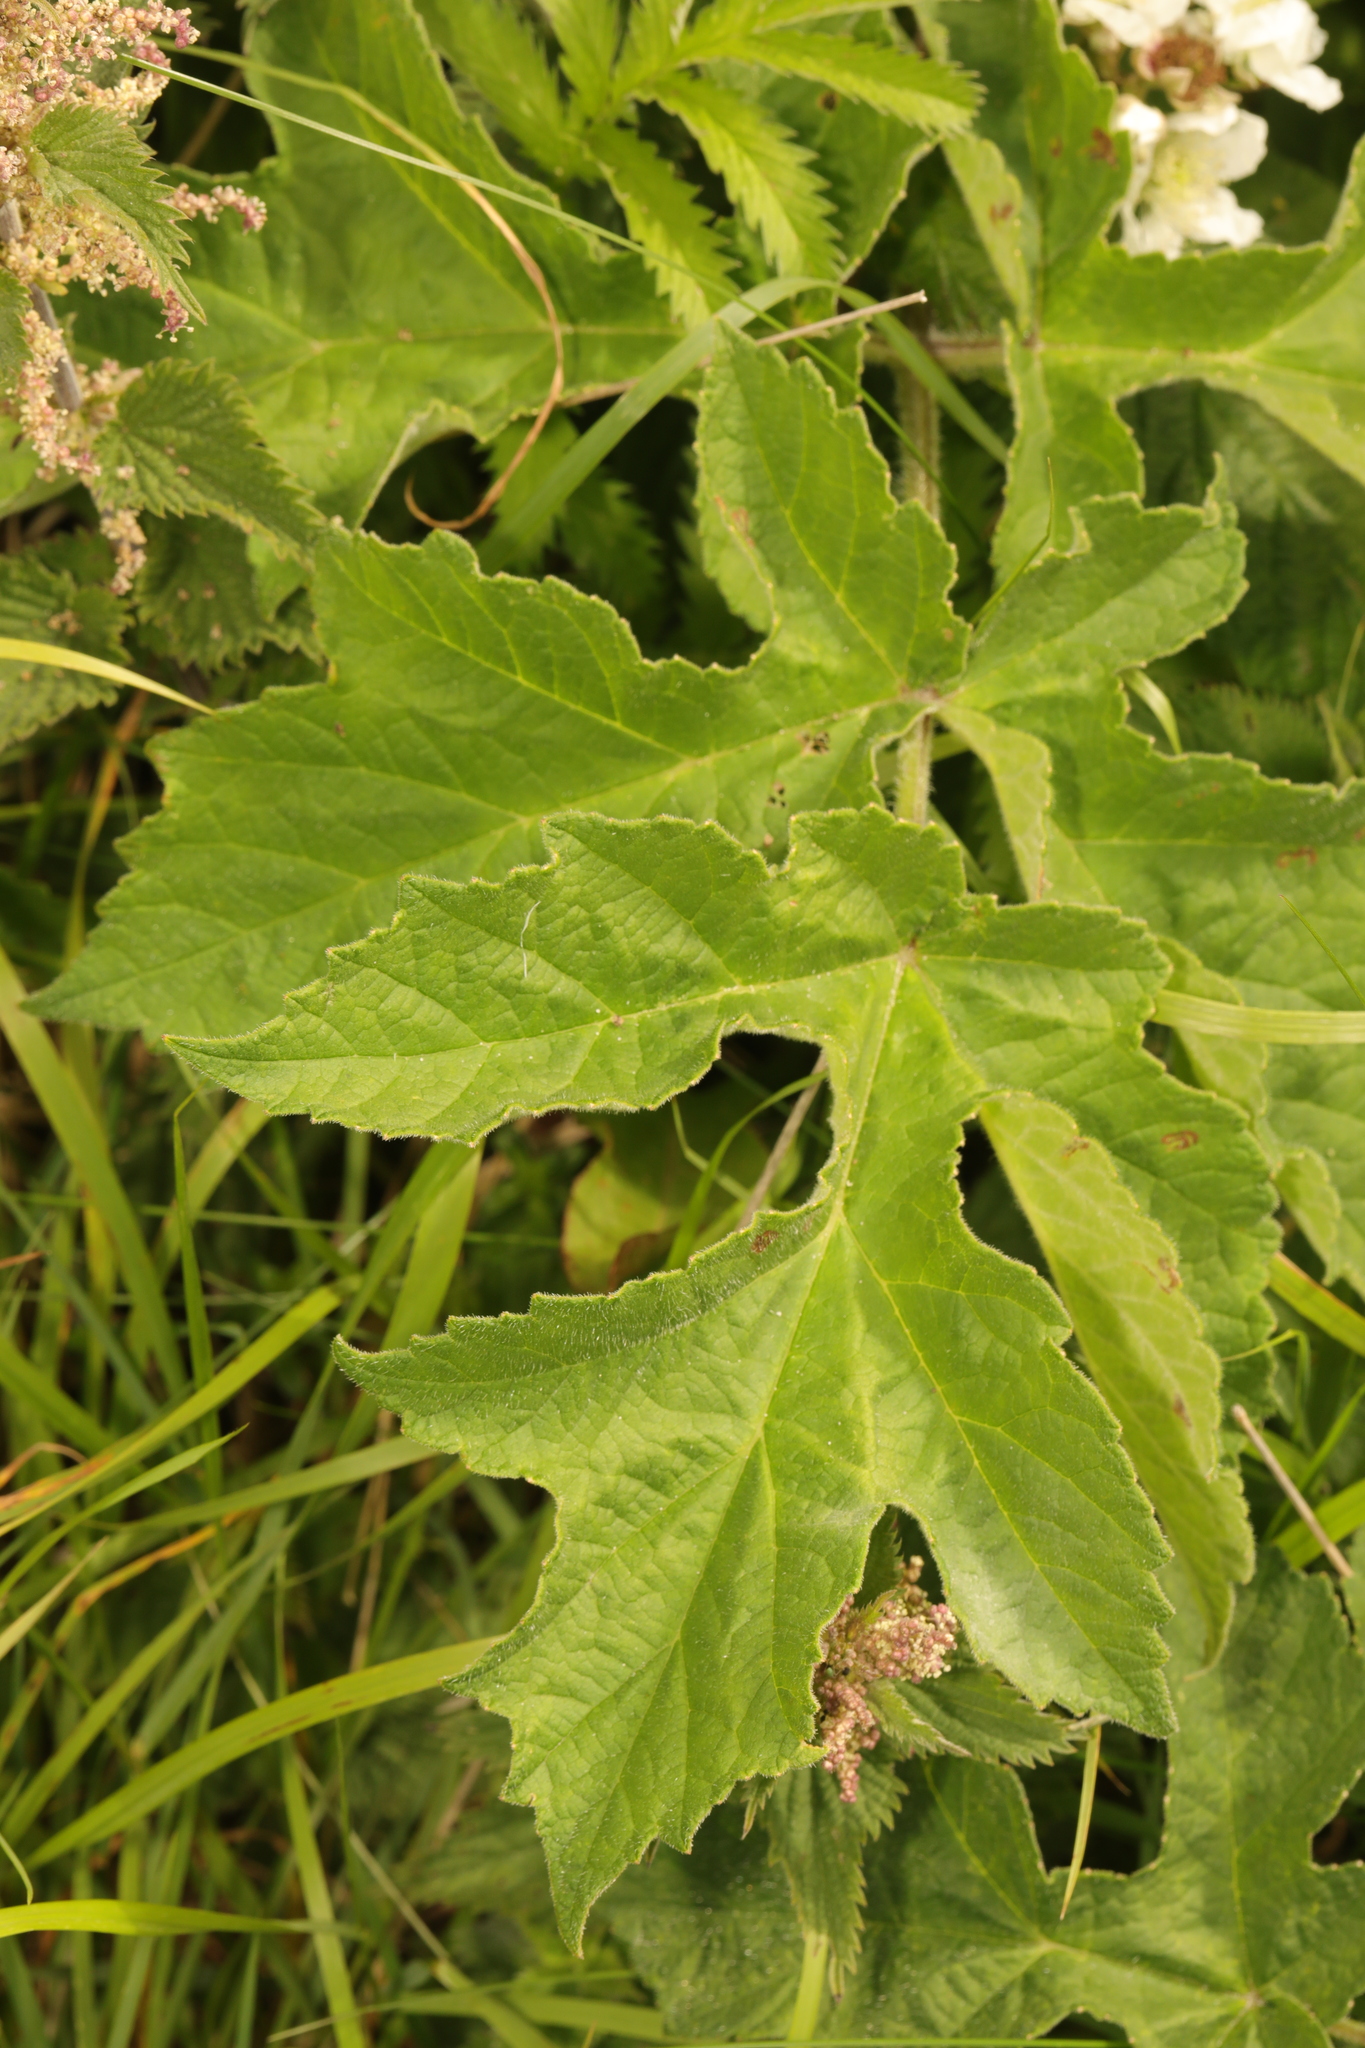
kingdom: Plantae
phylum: Tracheophyta
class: Magnoliopsida
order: Apiales
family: Apiaceae
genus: Heracleum
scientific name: Heracleum sphondylium
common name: Hogweed
